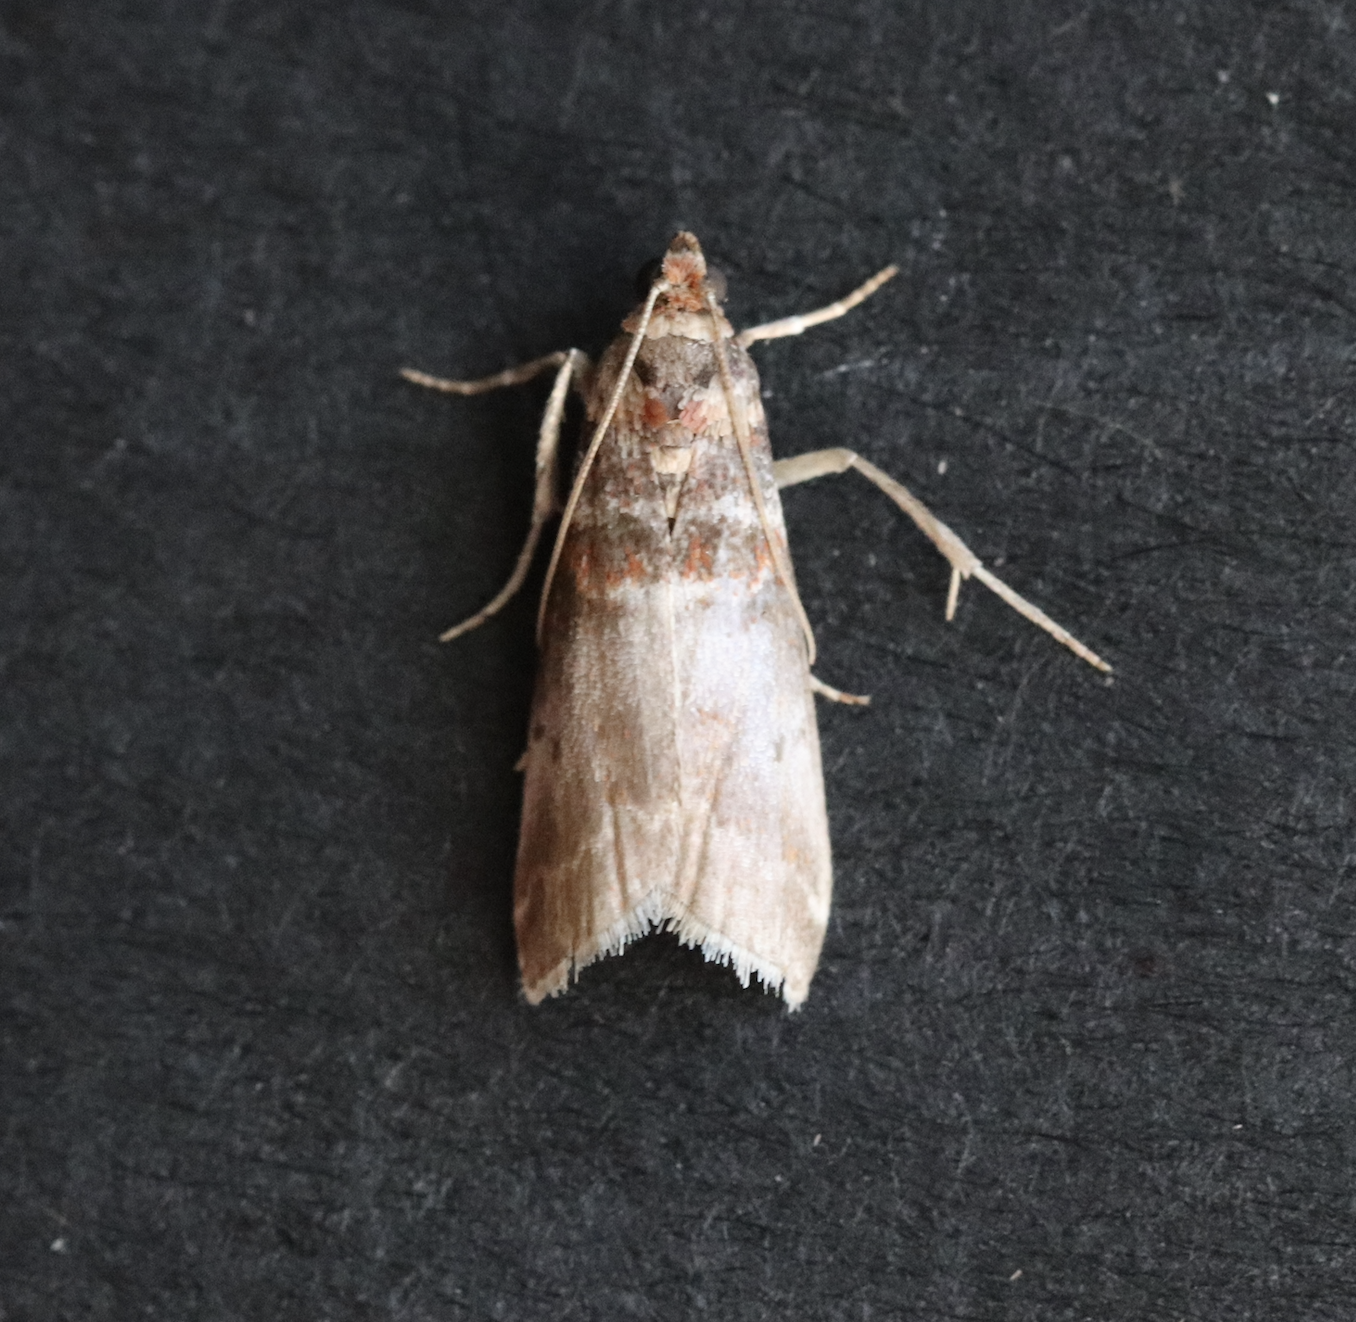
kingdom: Animalia
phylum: Arthropoda
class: Insecta
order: Lepidoptera
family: Pyralidae
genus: Acrobasis
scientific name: Acrobasis advenella
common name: Grey knot-horn
